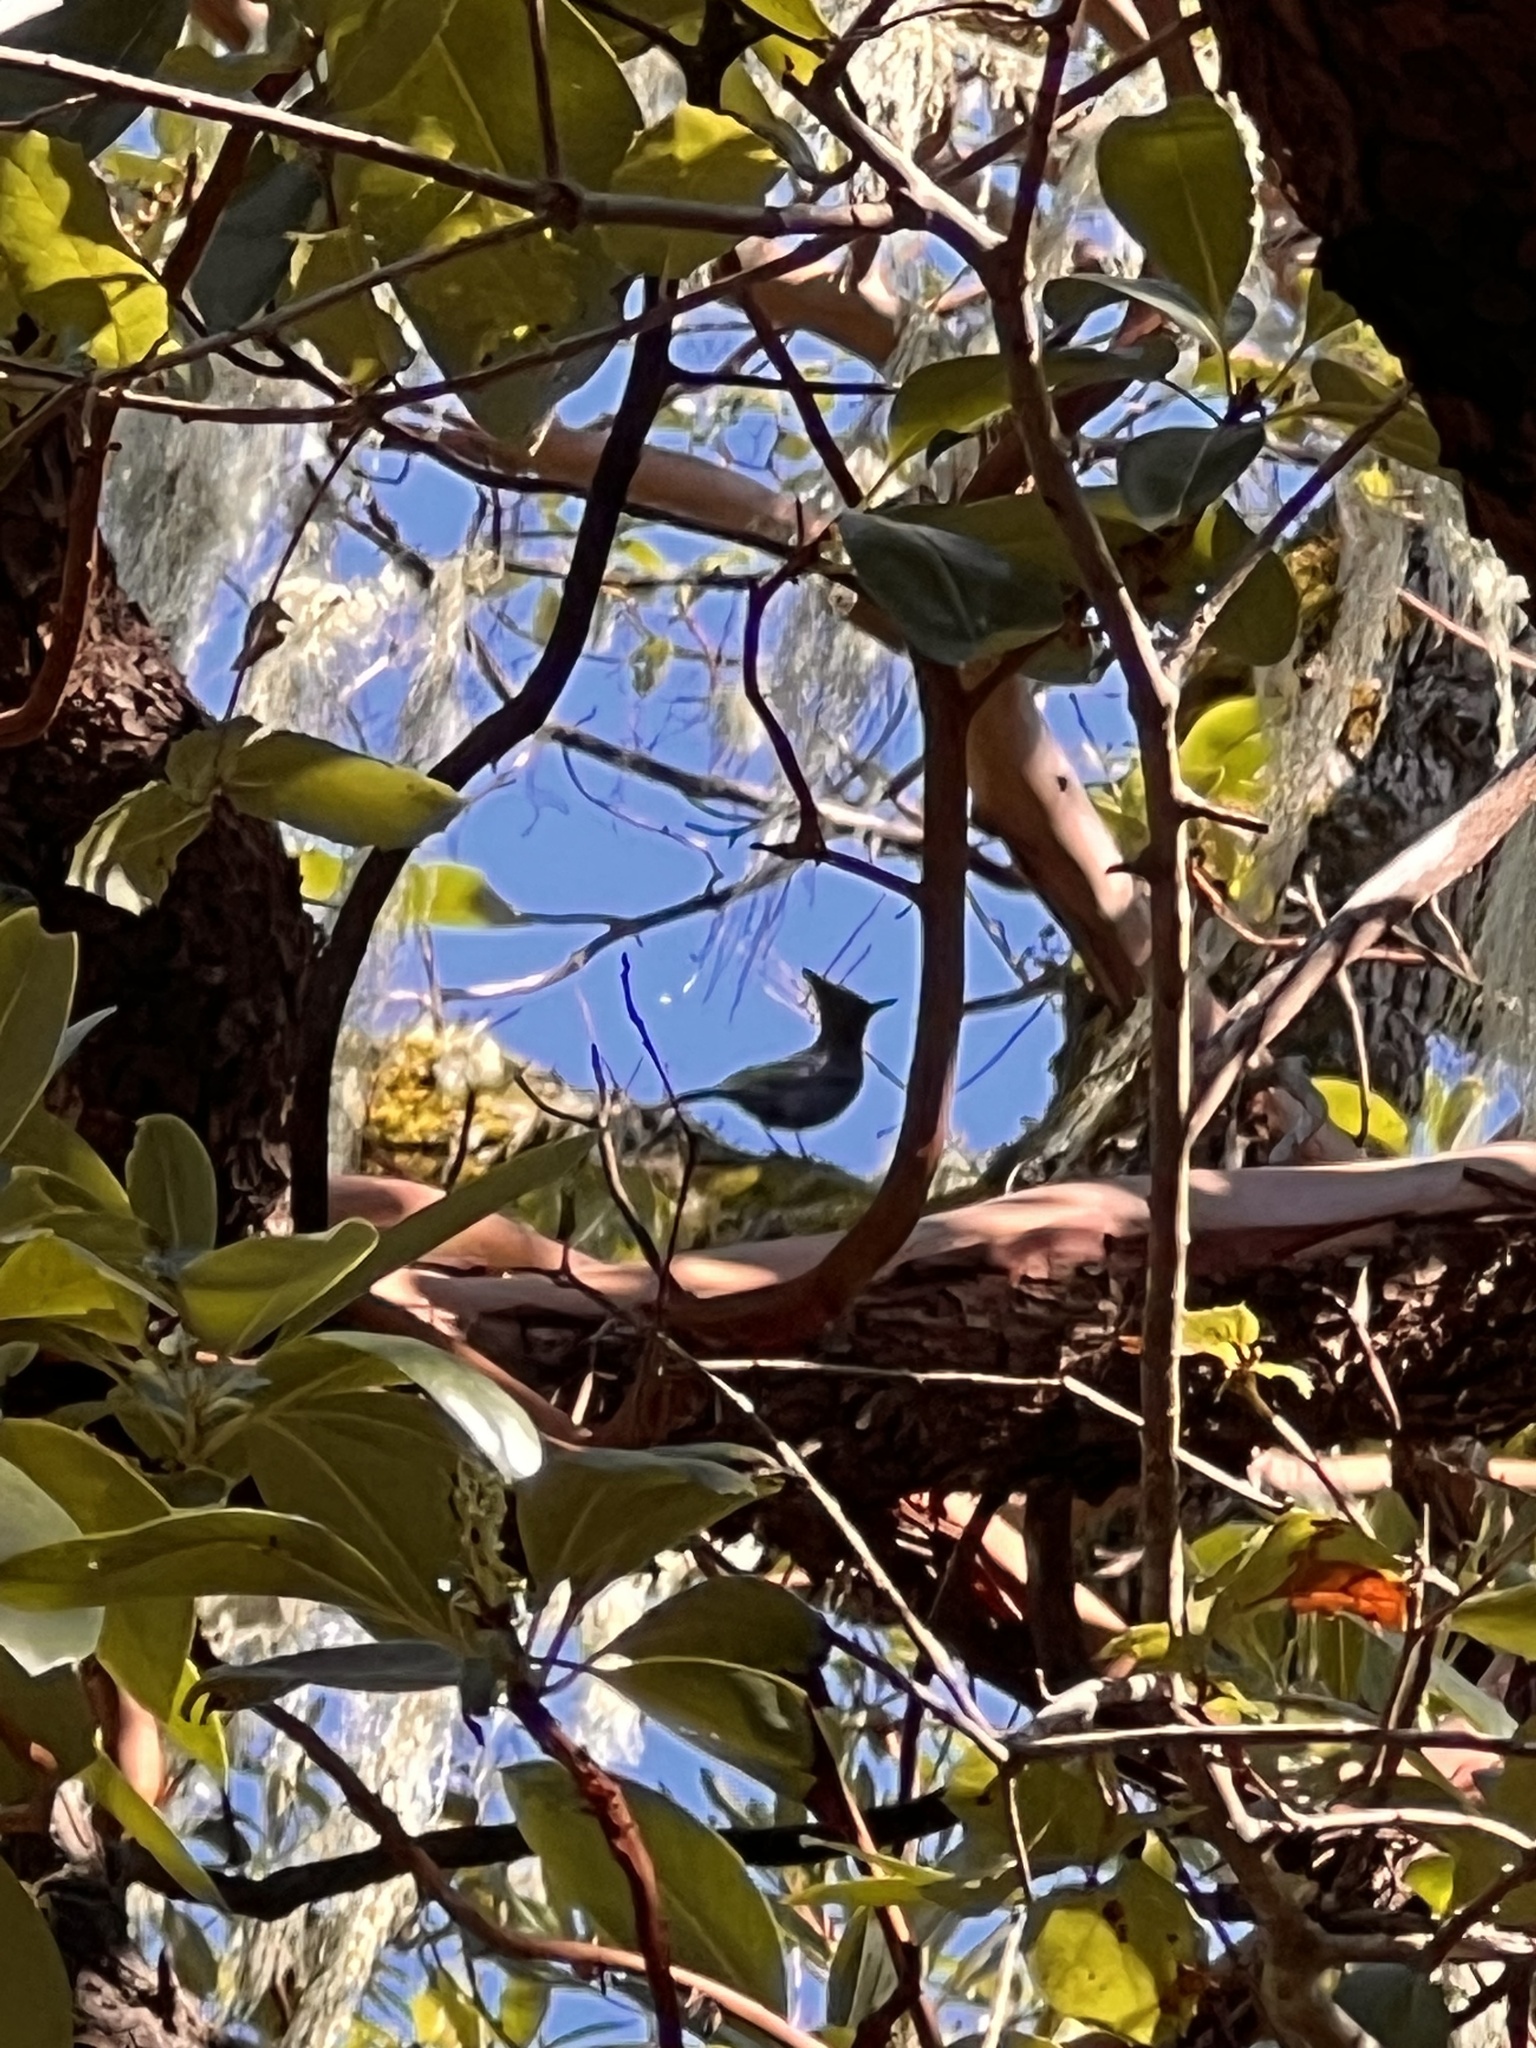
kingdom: Animalia
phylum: Chordata
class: Aves
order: Passeriformes
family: Corvidae
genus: Cyanocitta
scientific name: Cyanocitta stelleri
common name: Steller's jay
